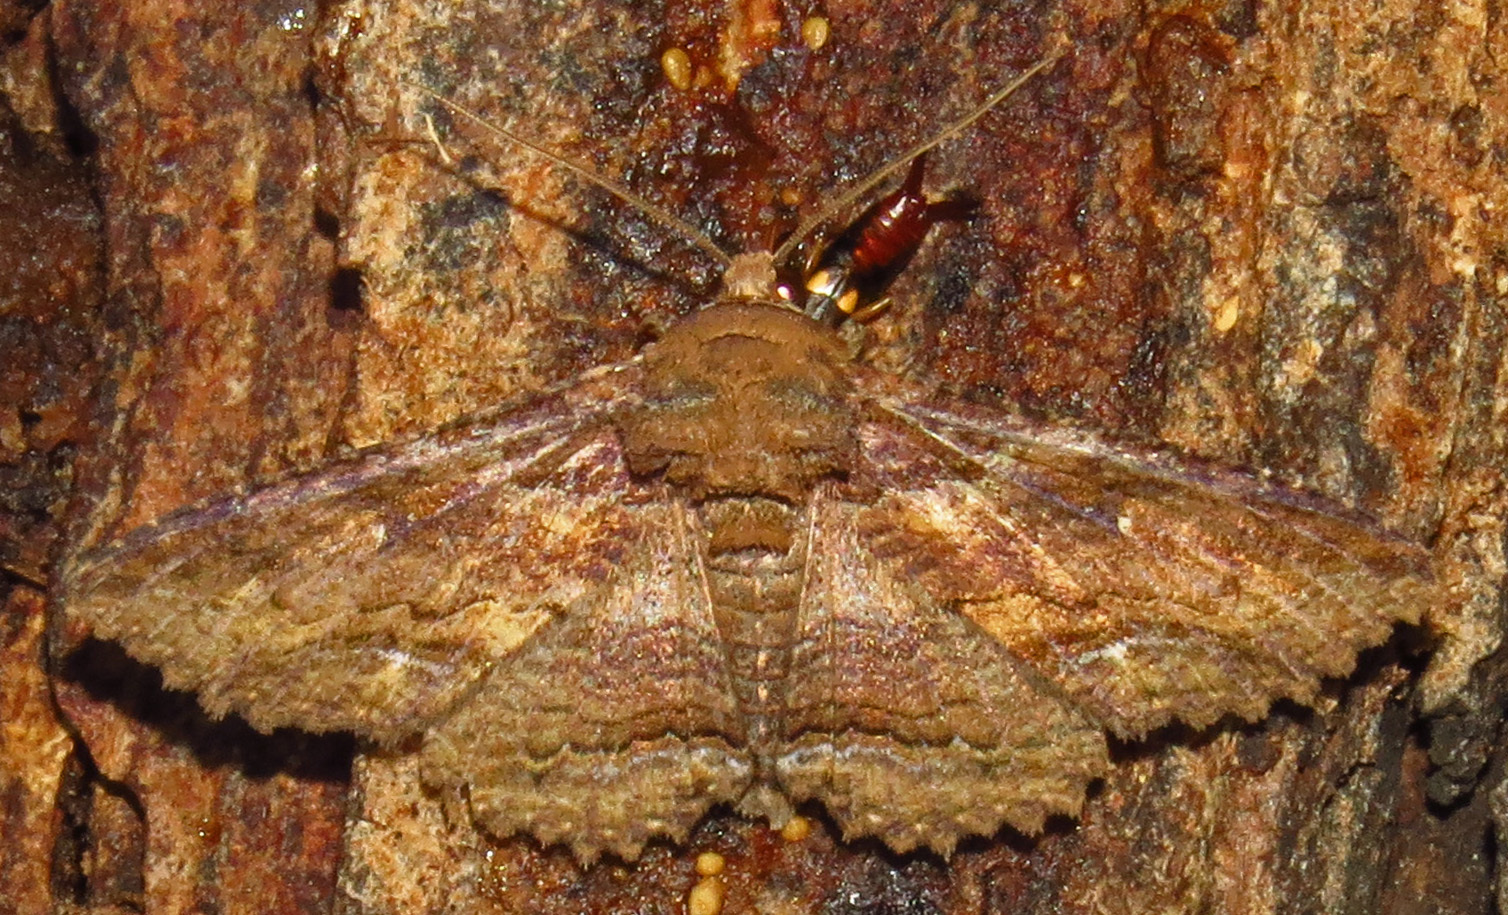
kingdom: Animalia
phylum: Arthropoda
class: Insecta
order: Lepidoptera
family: Erebidae
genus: Zale
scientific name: Zale lunata
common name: Lunate zale moth
